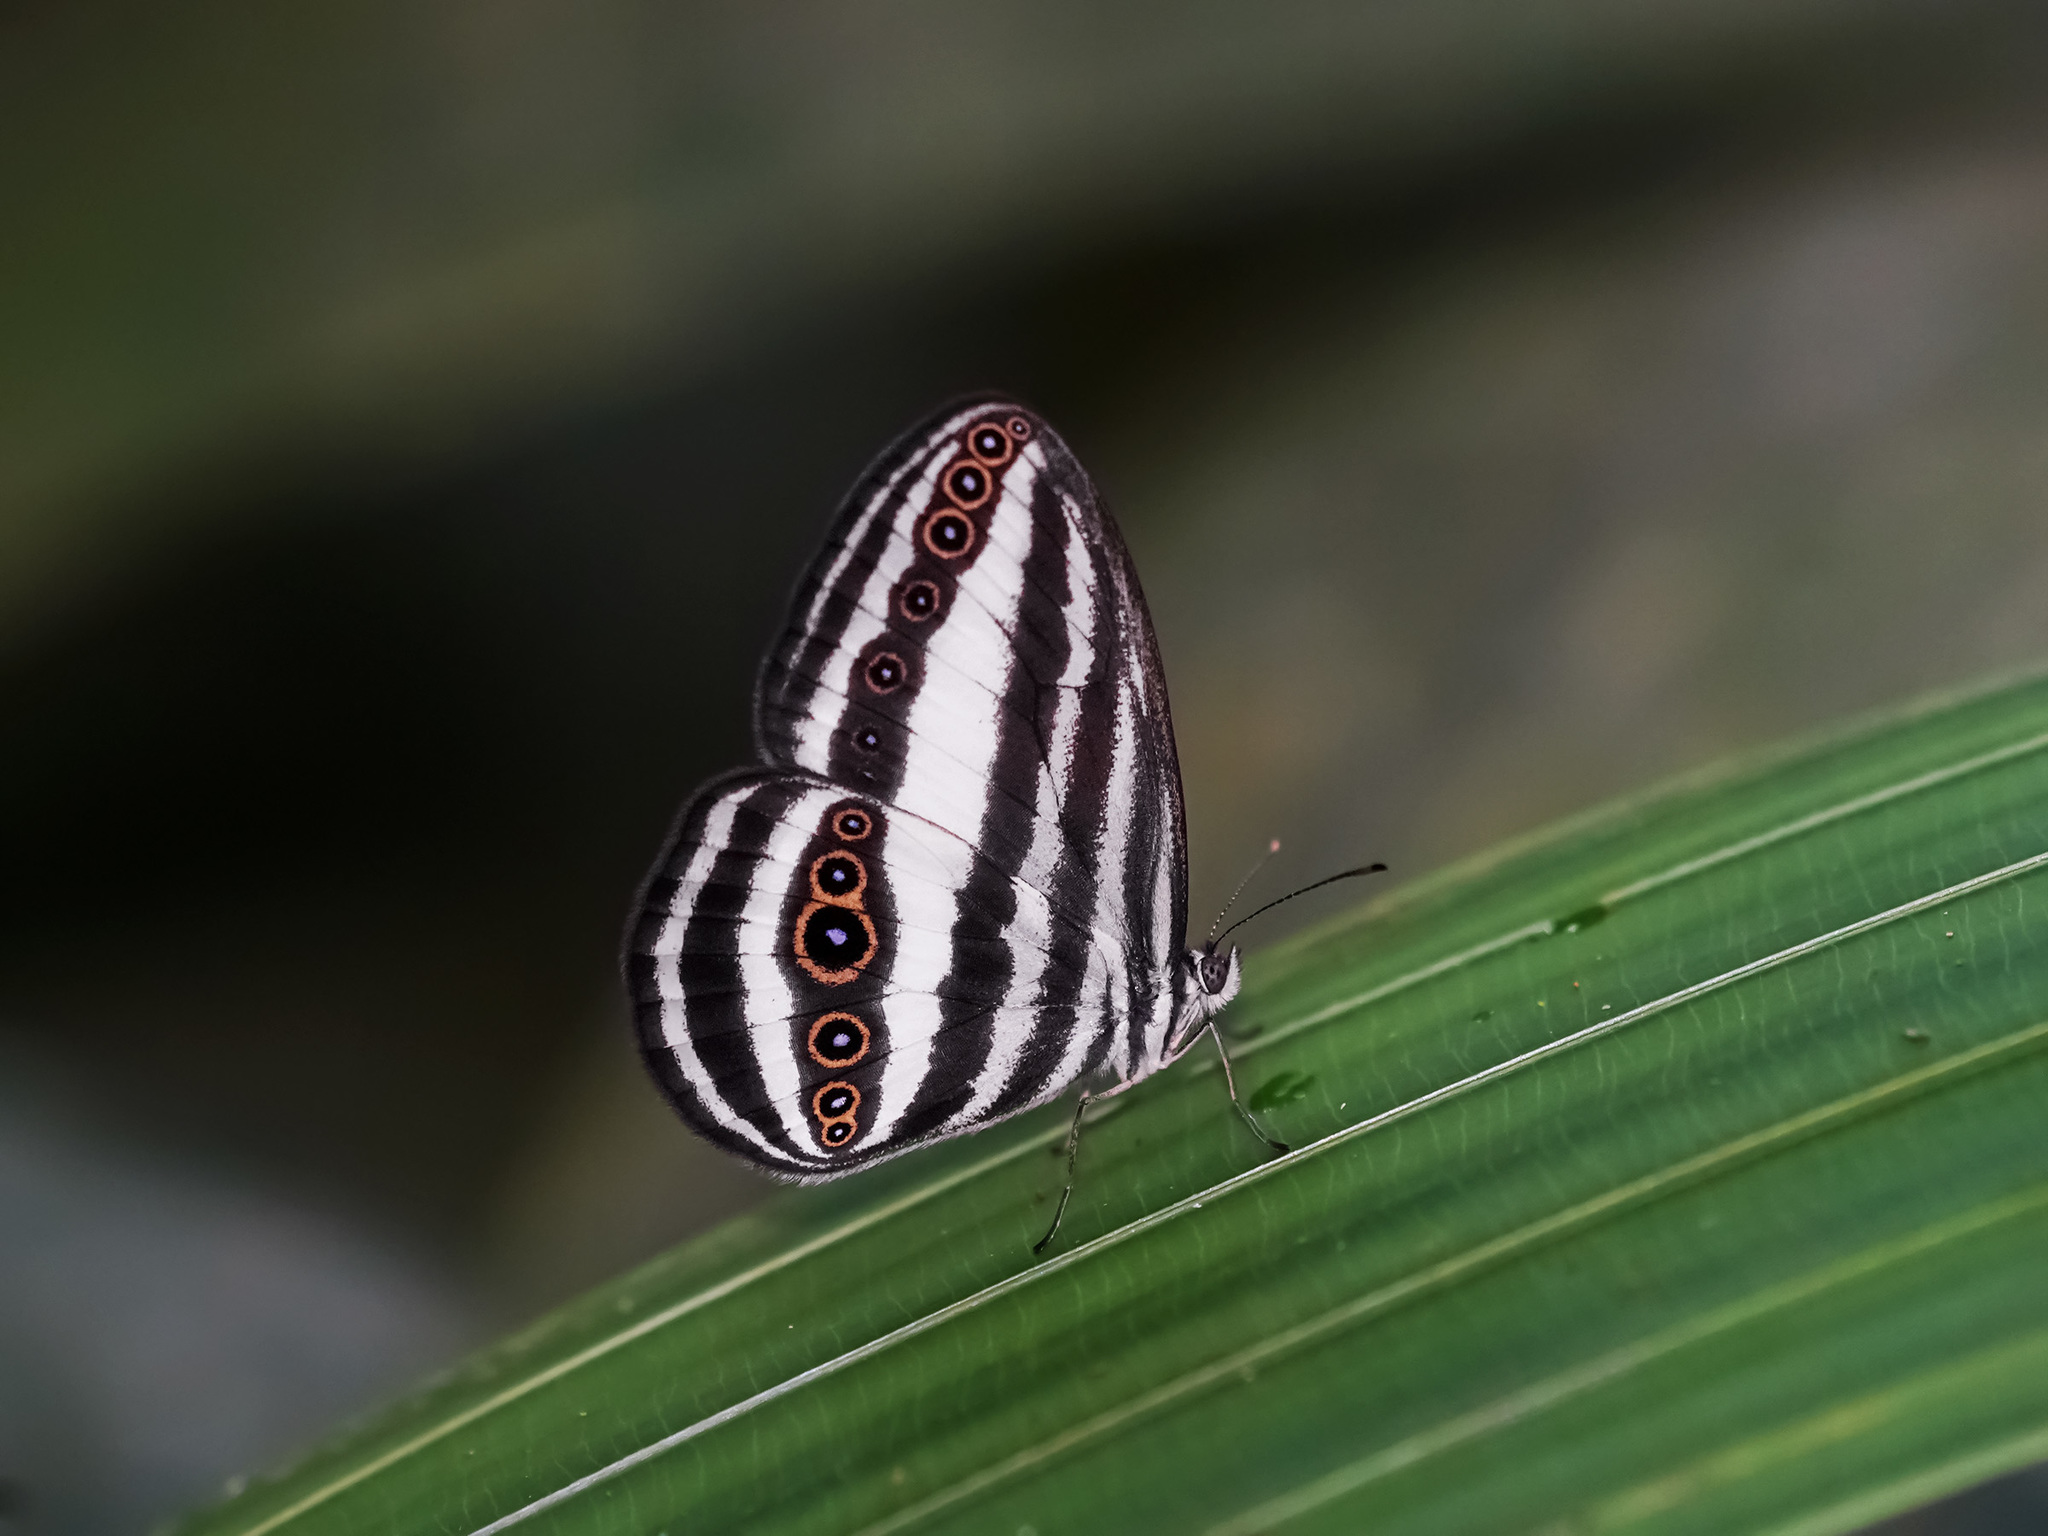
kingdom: Animalia
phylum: Arthropoda
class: Insecta
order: Lepidoptera
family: Nymphalidae
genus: Ragadia
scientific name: Ragadia crisilda
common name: White-striped ringlet
